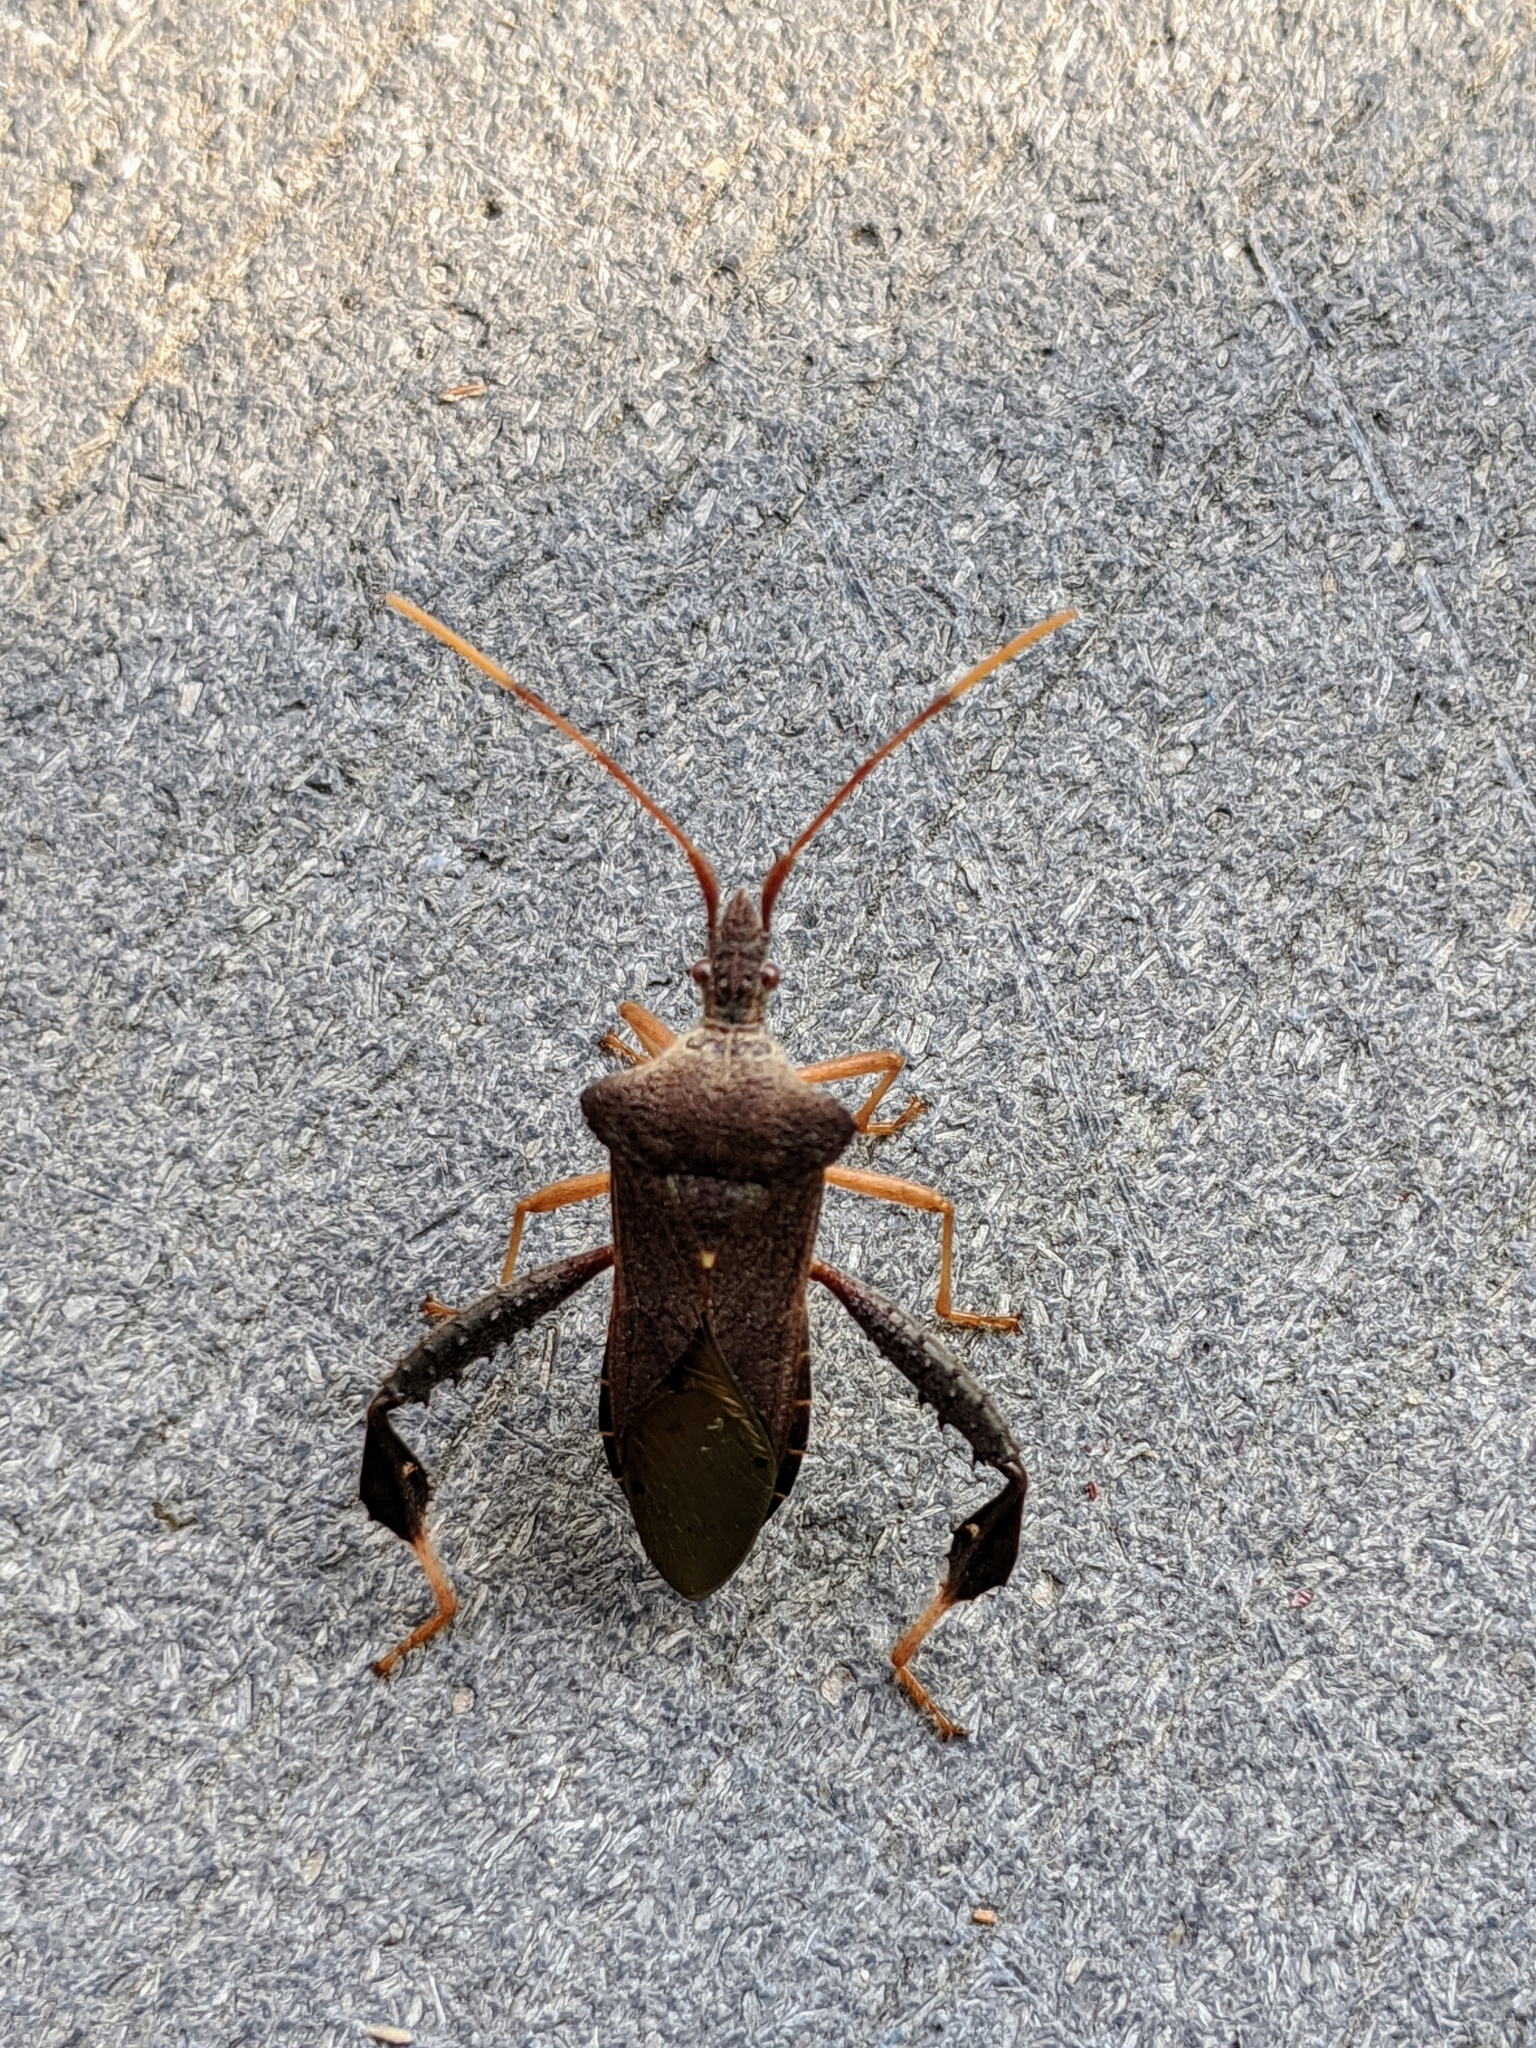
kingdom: Animalia
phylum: Arthropoda
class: Insecta
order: Hemiptera
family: Coreidae
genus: Leptoglossus
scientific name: Leptoglossus fulvicornis
